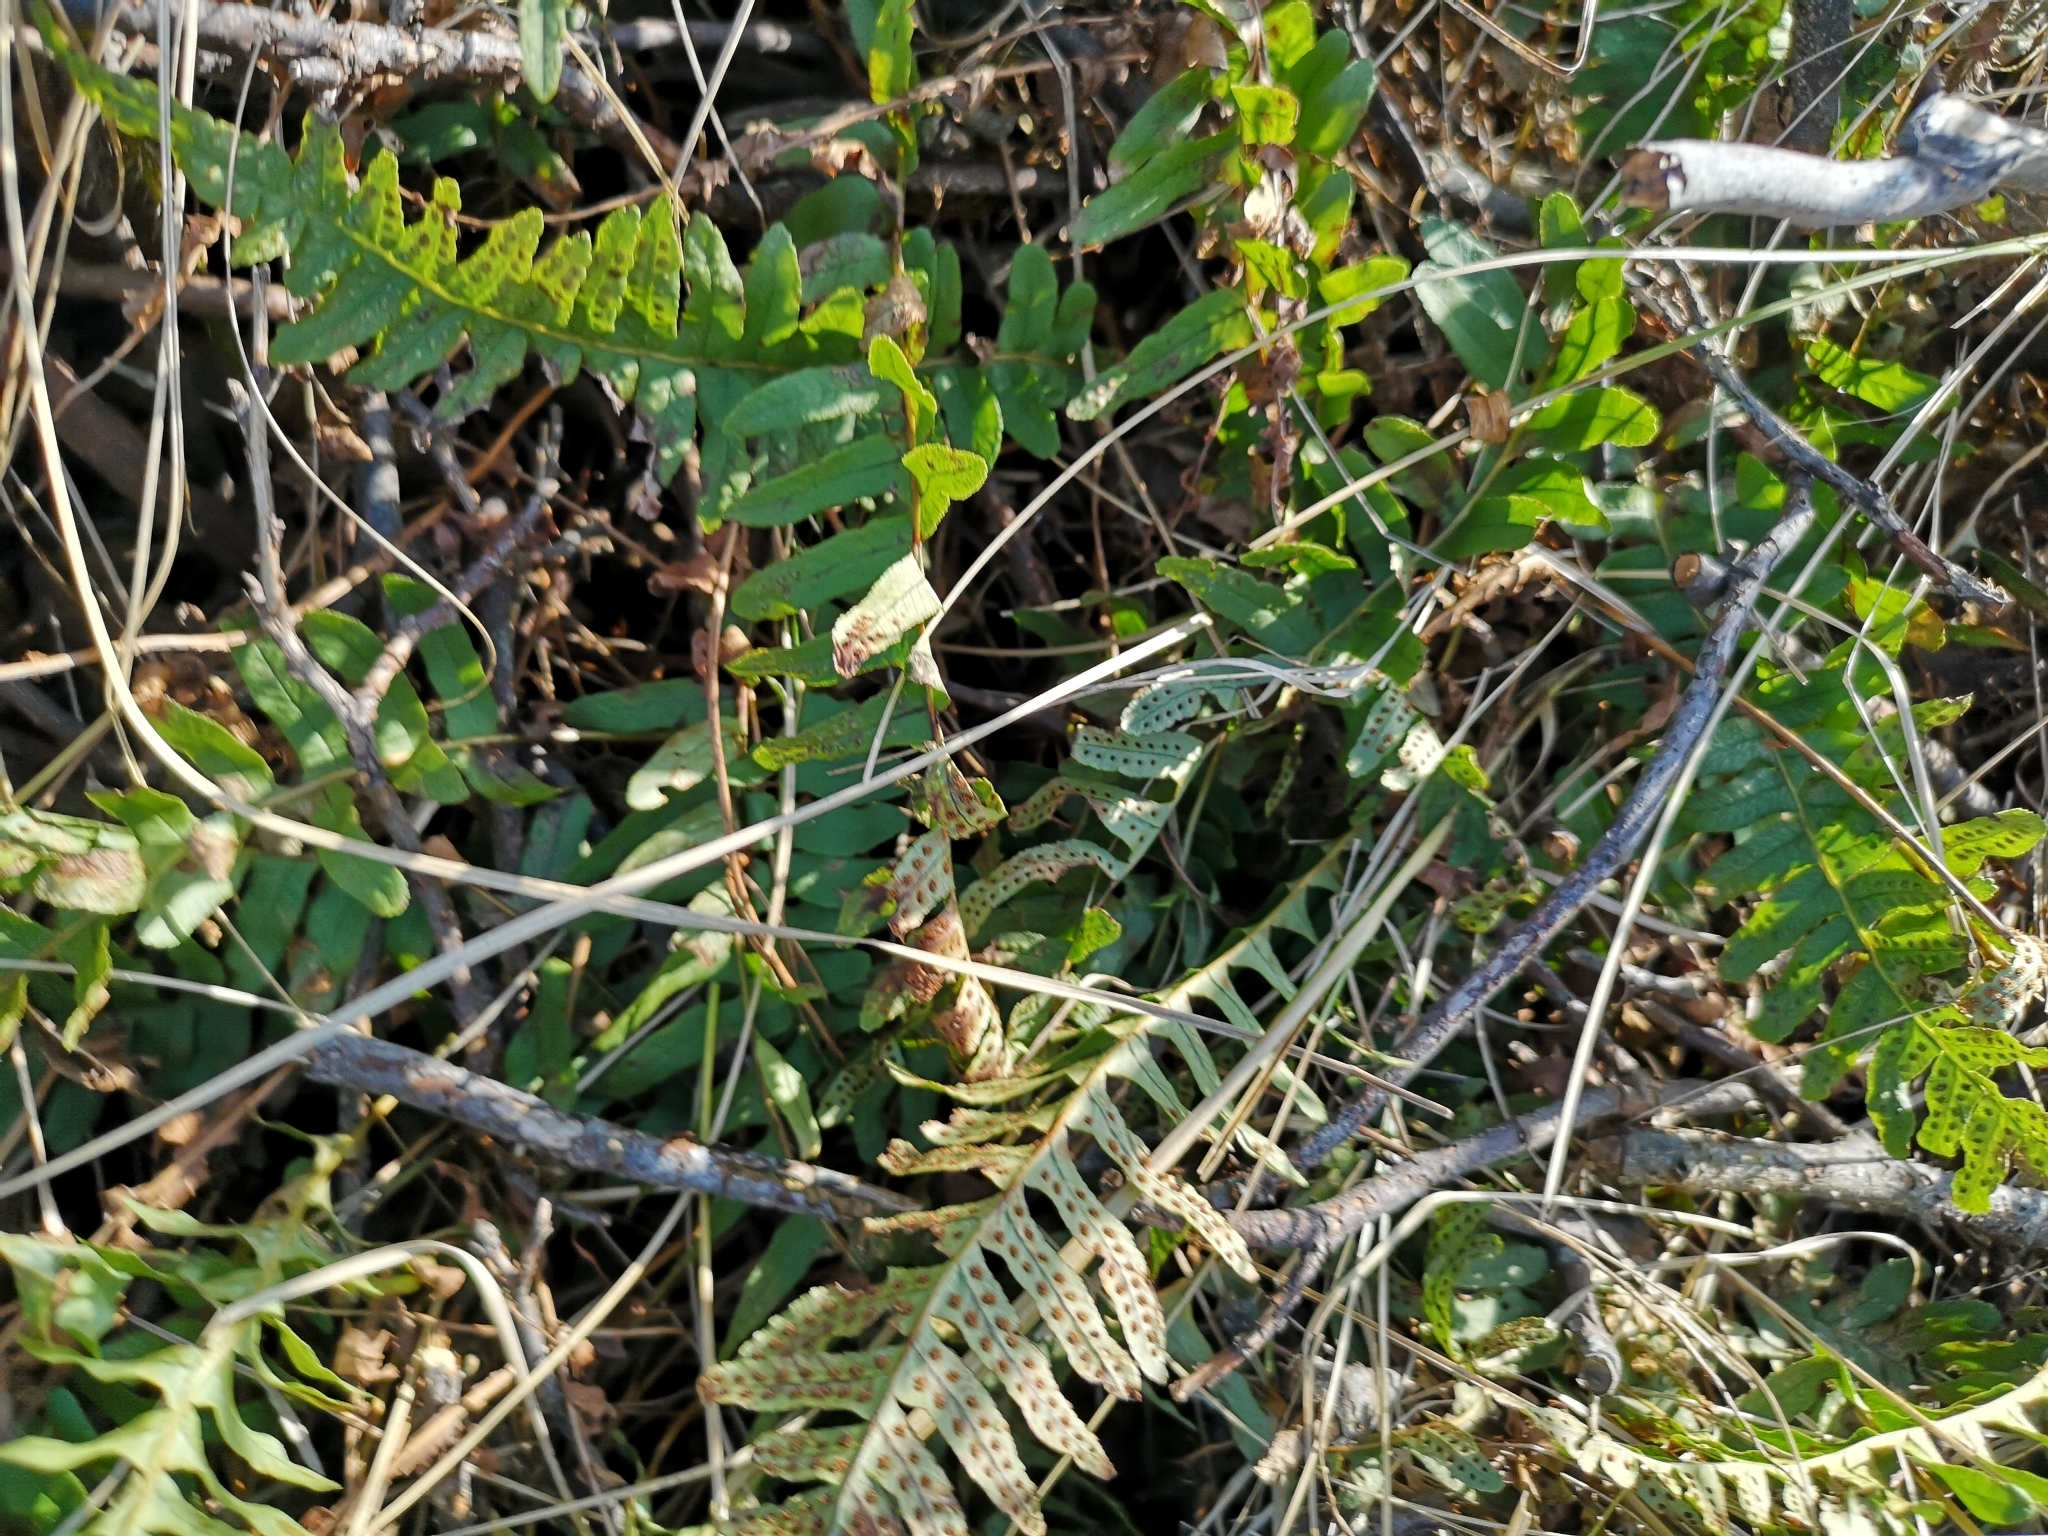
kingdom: Plantae
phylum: Tracheophyta
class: Polypodiopsida
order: Polypodiales
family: Polypodiaceae
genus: Polypodium
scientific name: Polypodium vulgare
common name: Common polypody
